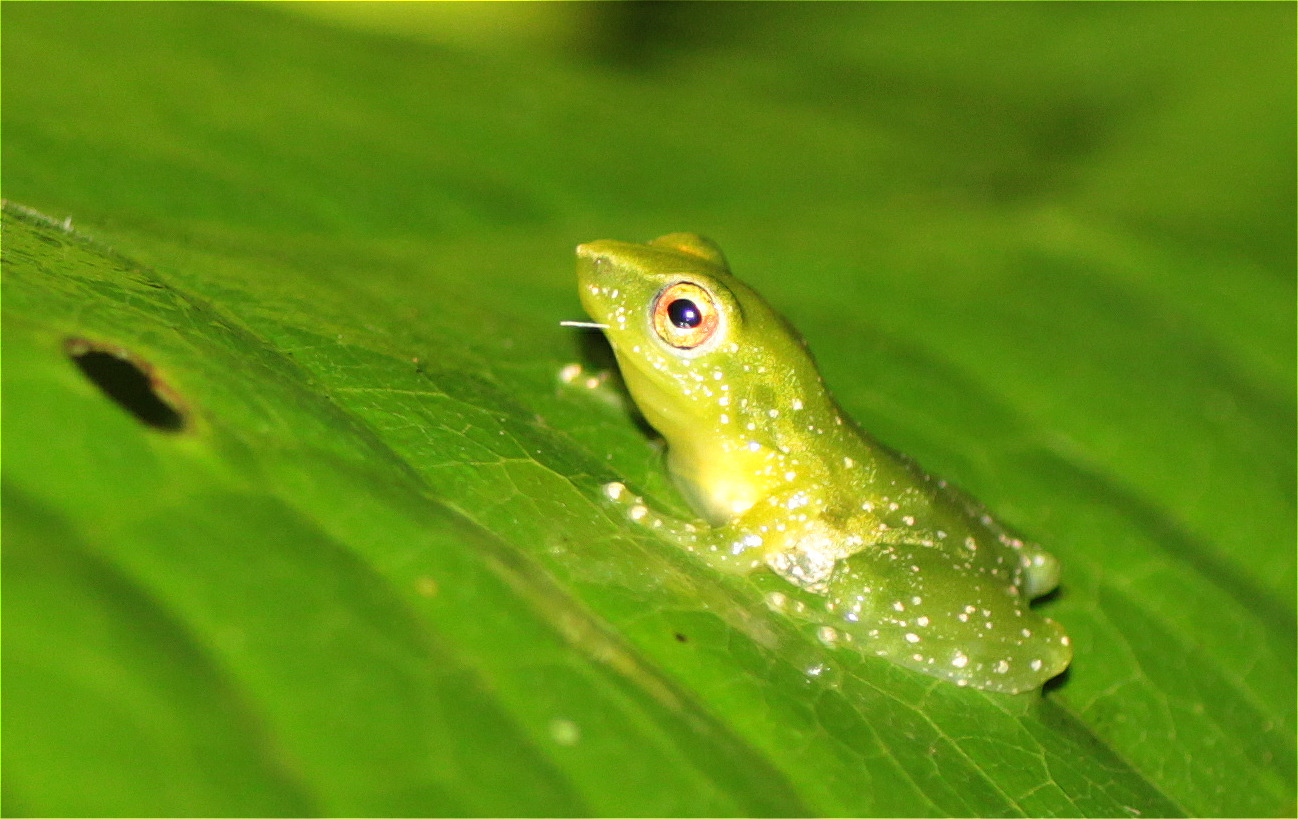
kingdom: Animalia
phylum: Chordata
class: Amphibia
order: Anura
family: Craugastoridae
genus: Pristimantis
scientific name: Pristimantis enigmaticus
